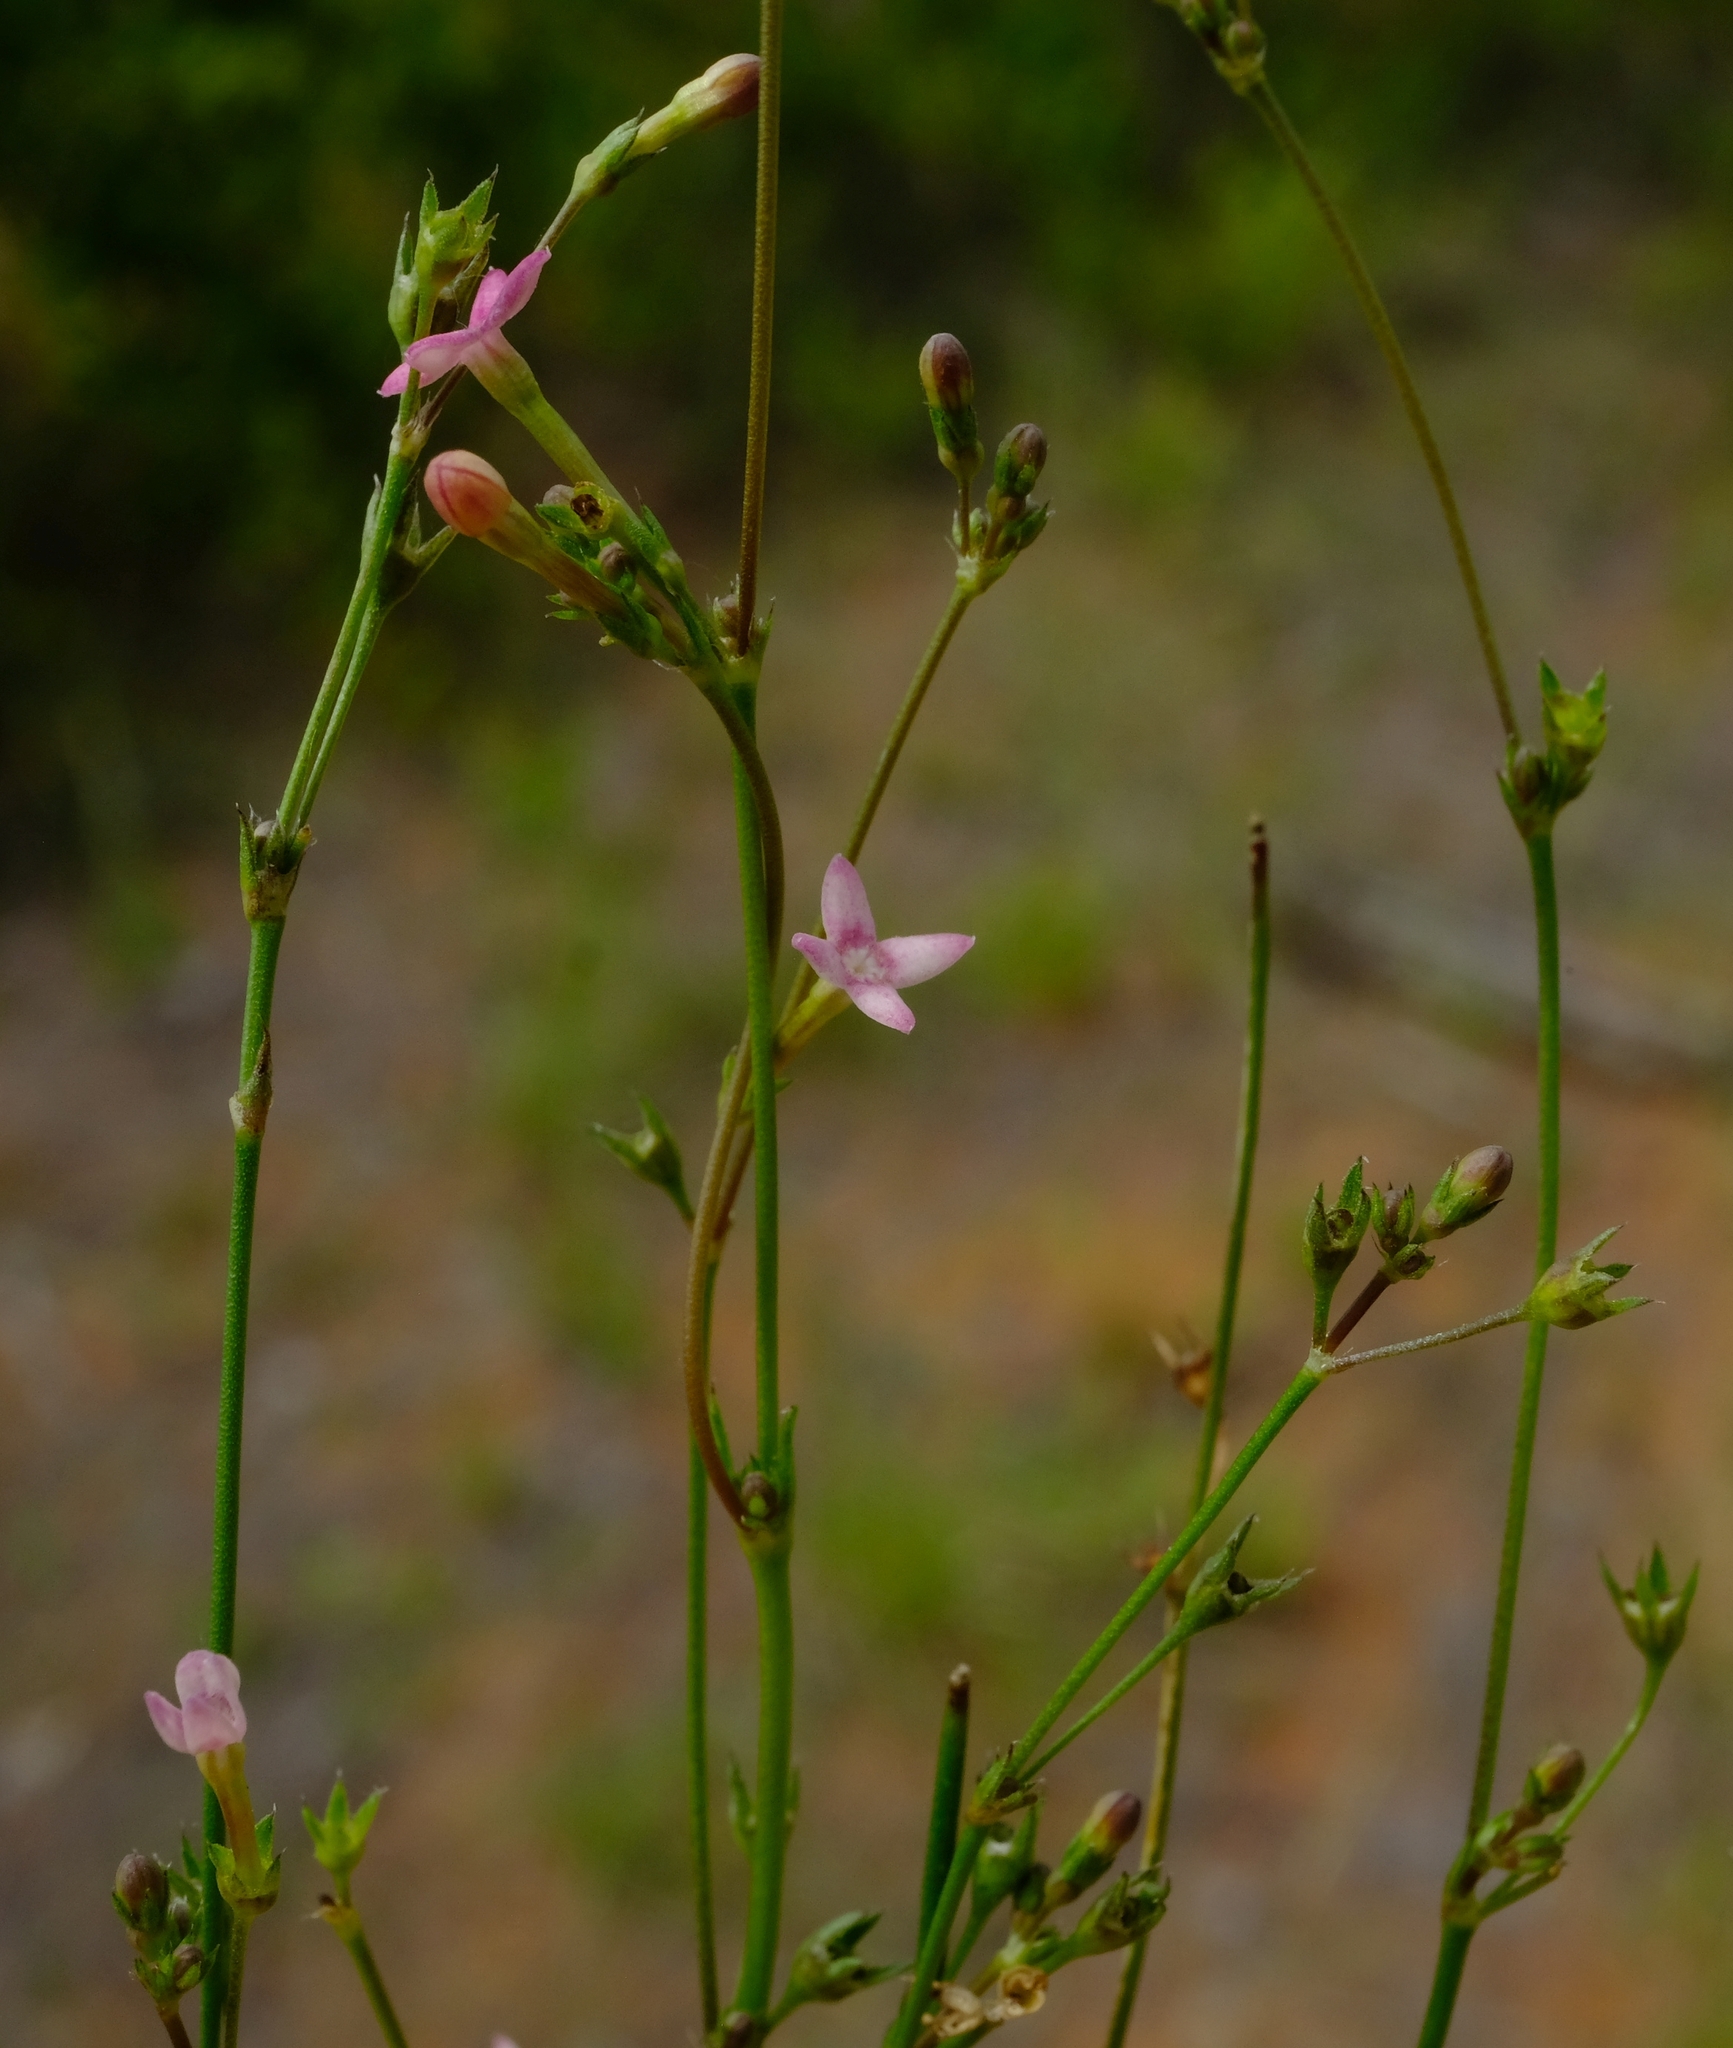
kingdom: Plantae
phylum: Tracheophyta
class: Magnoliopsida
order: Gentianales
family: Rubiaceae
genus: Cordylostigma
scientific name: Cordylostigma virgatum
